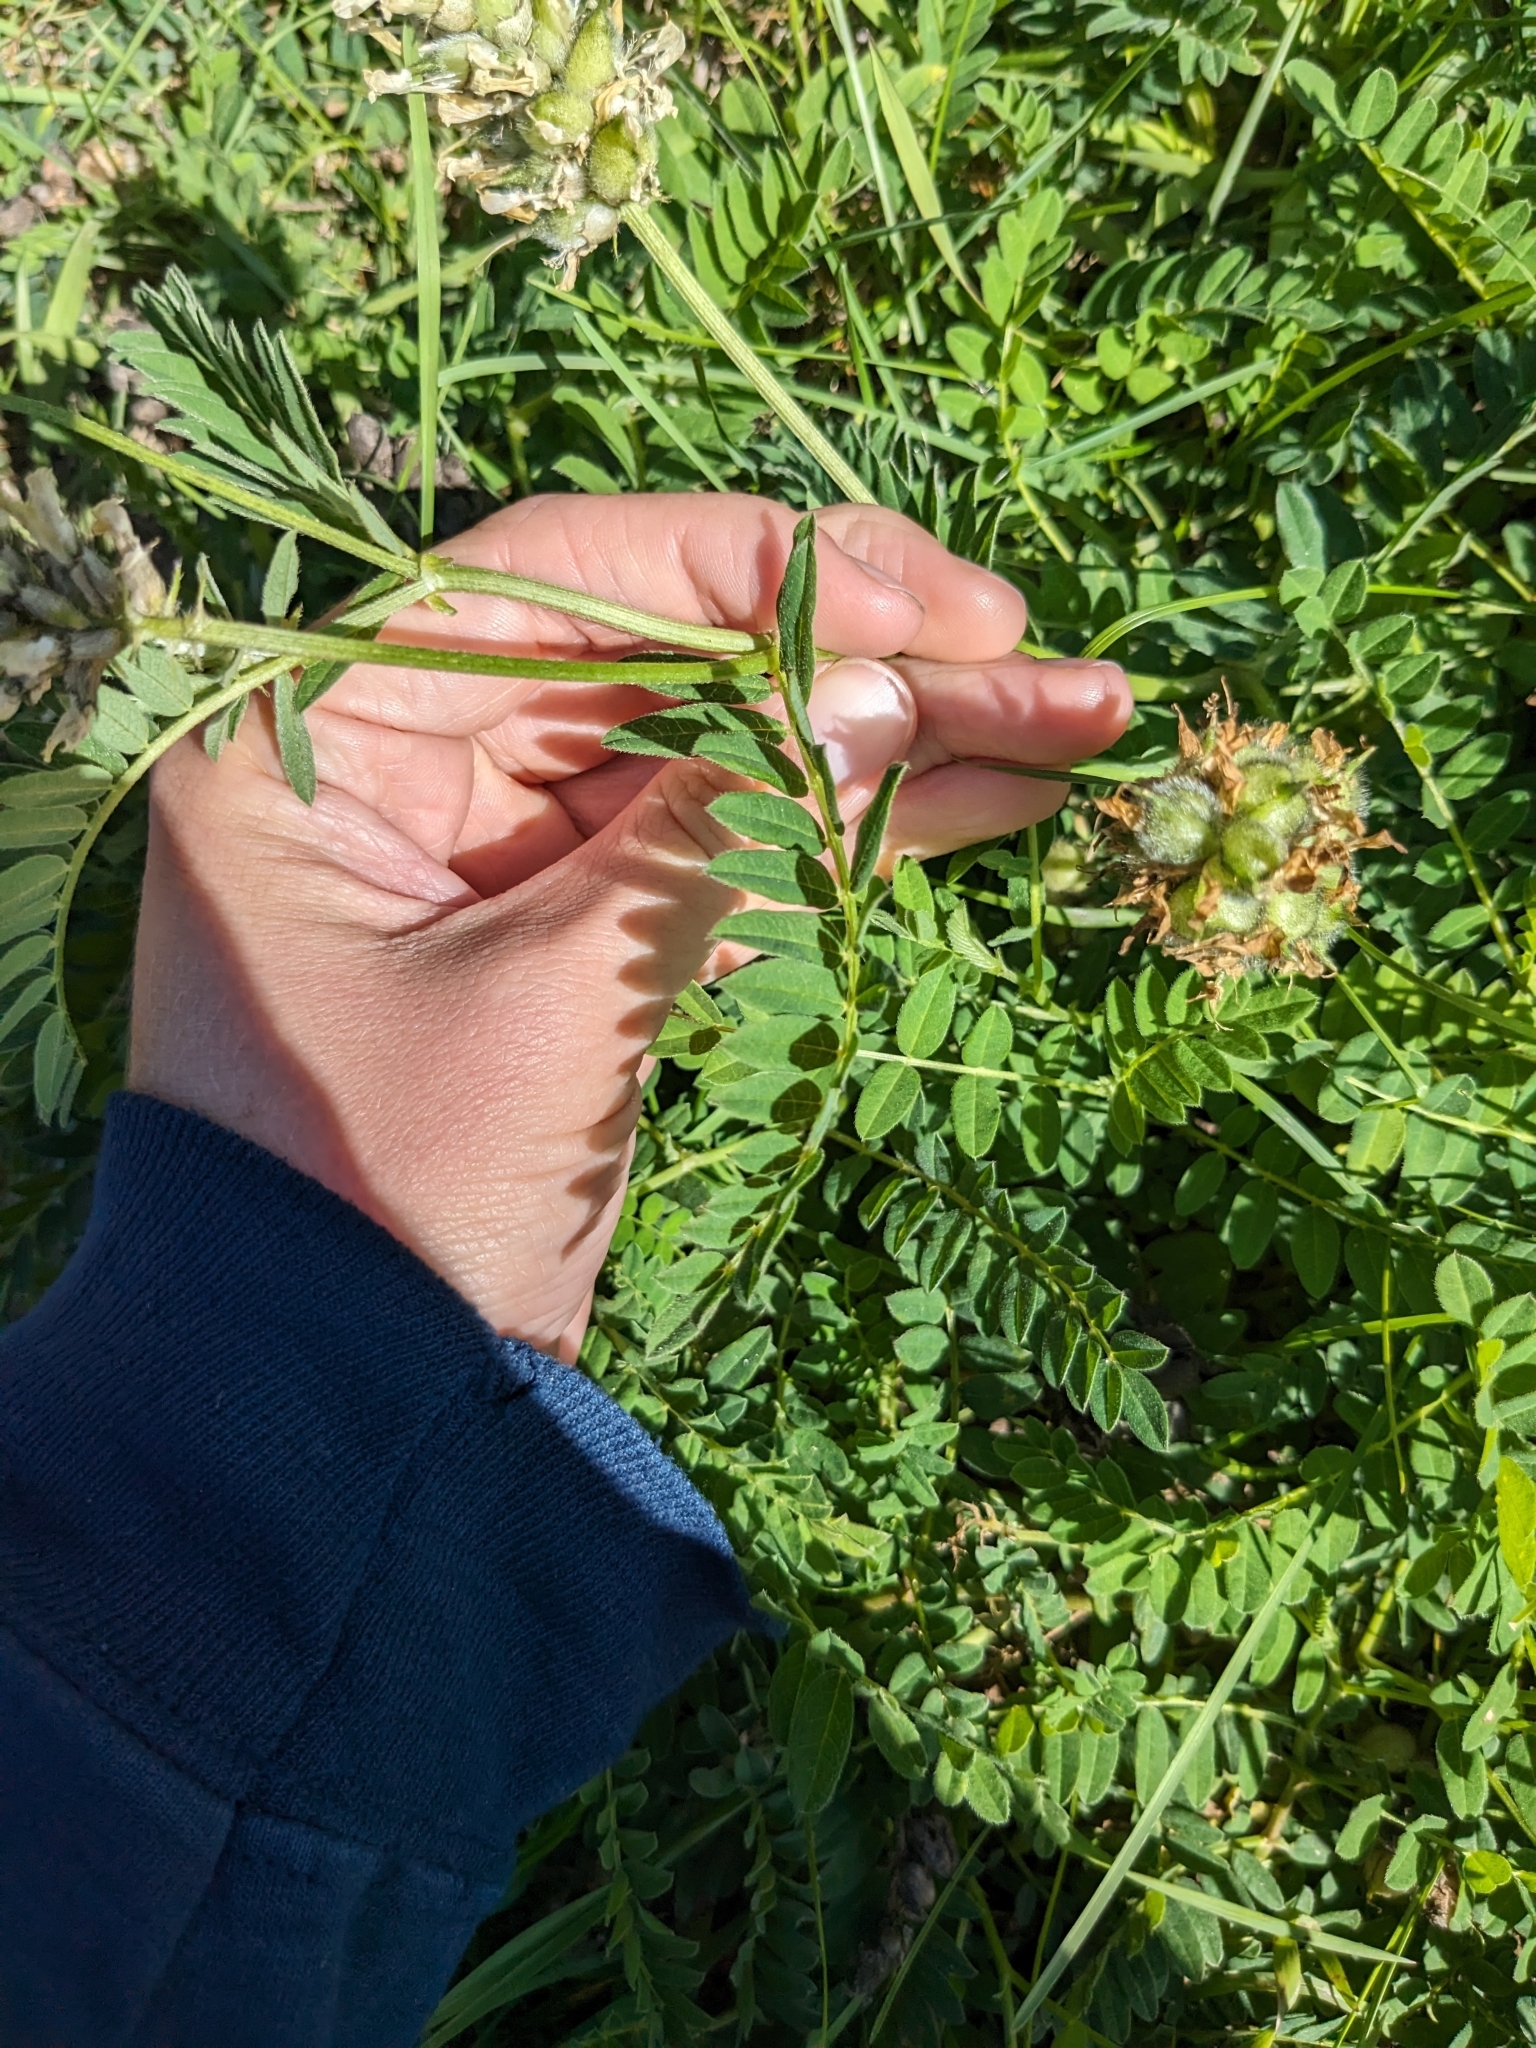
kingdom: Plantae
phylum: Tracheophyta
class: Magnoliopsida
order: Fabales
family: Fabaceae
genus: Astragalus
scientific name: Astragalus cicer
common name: Chick-pea milk-vetch
